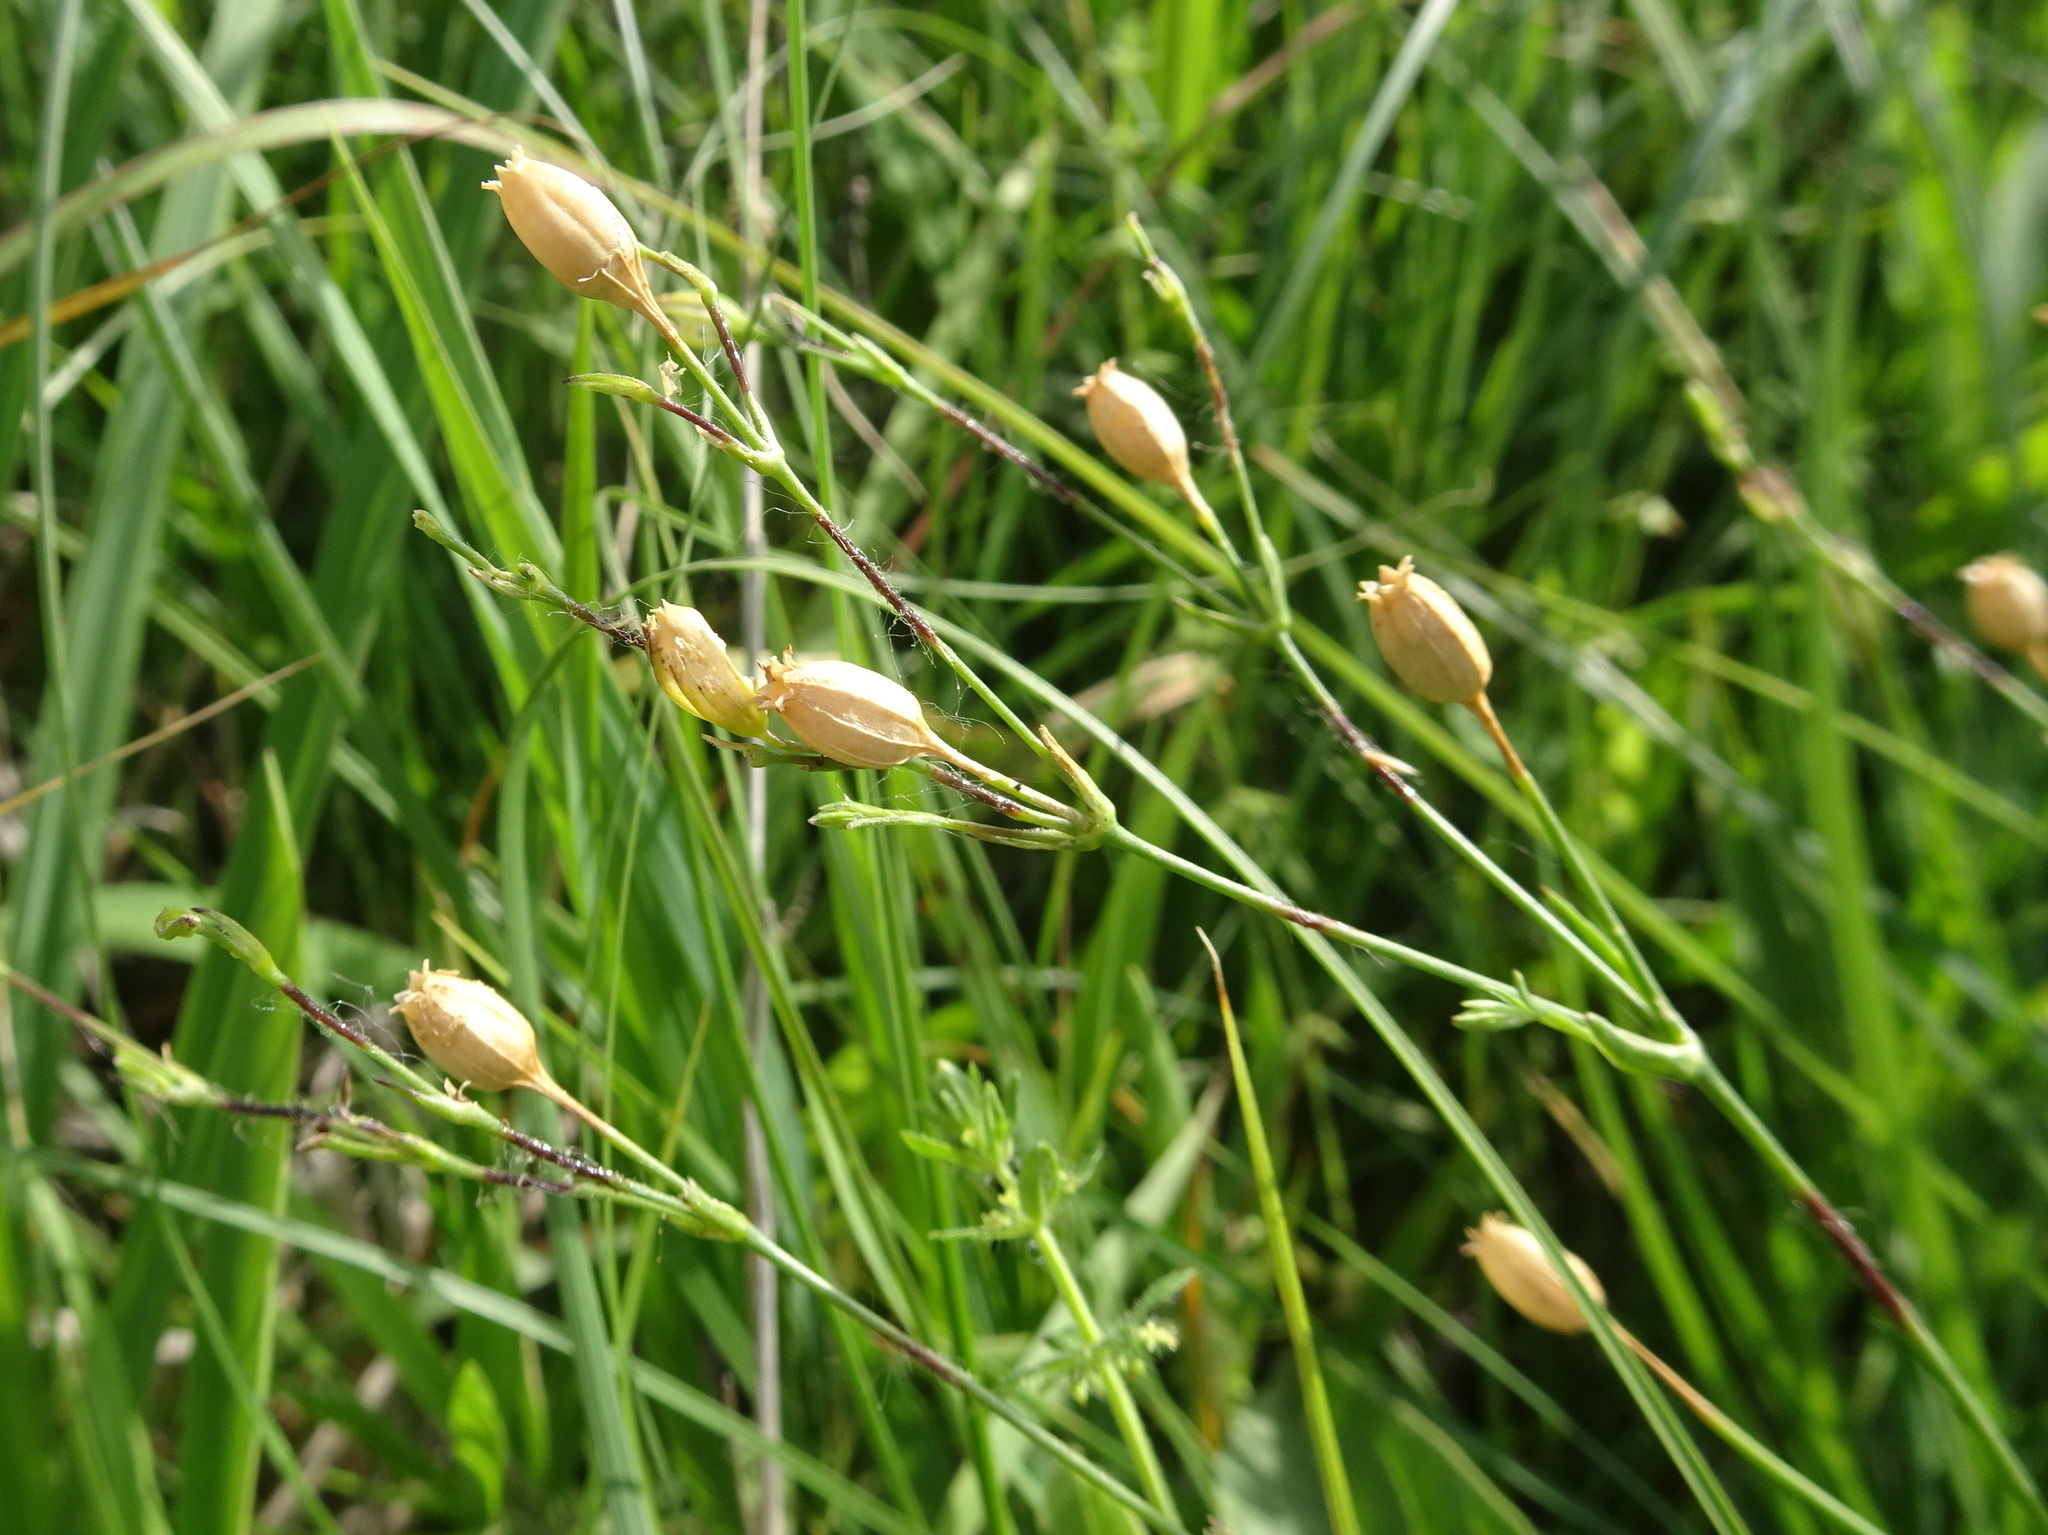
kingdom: Plantae
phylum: Tracheophyta
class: Magnoliopsida
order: Caryophyllales
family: Caryophyllaceae
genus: Silene
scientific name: Silene antirrhina
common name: Sleepy catchfly
